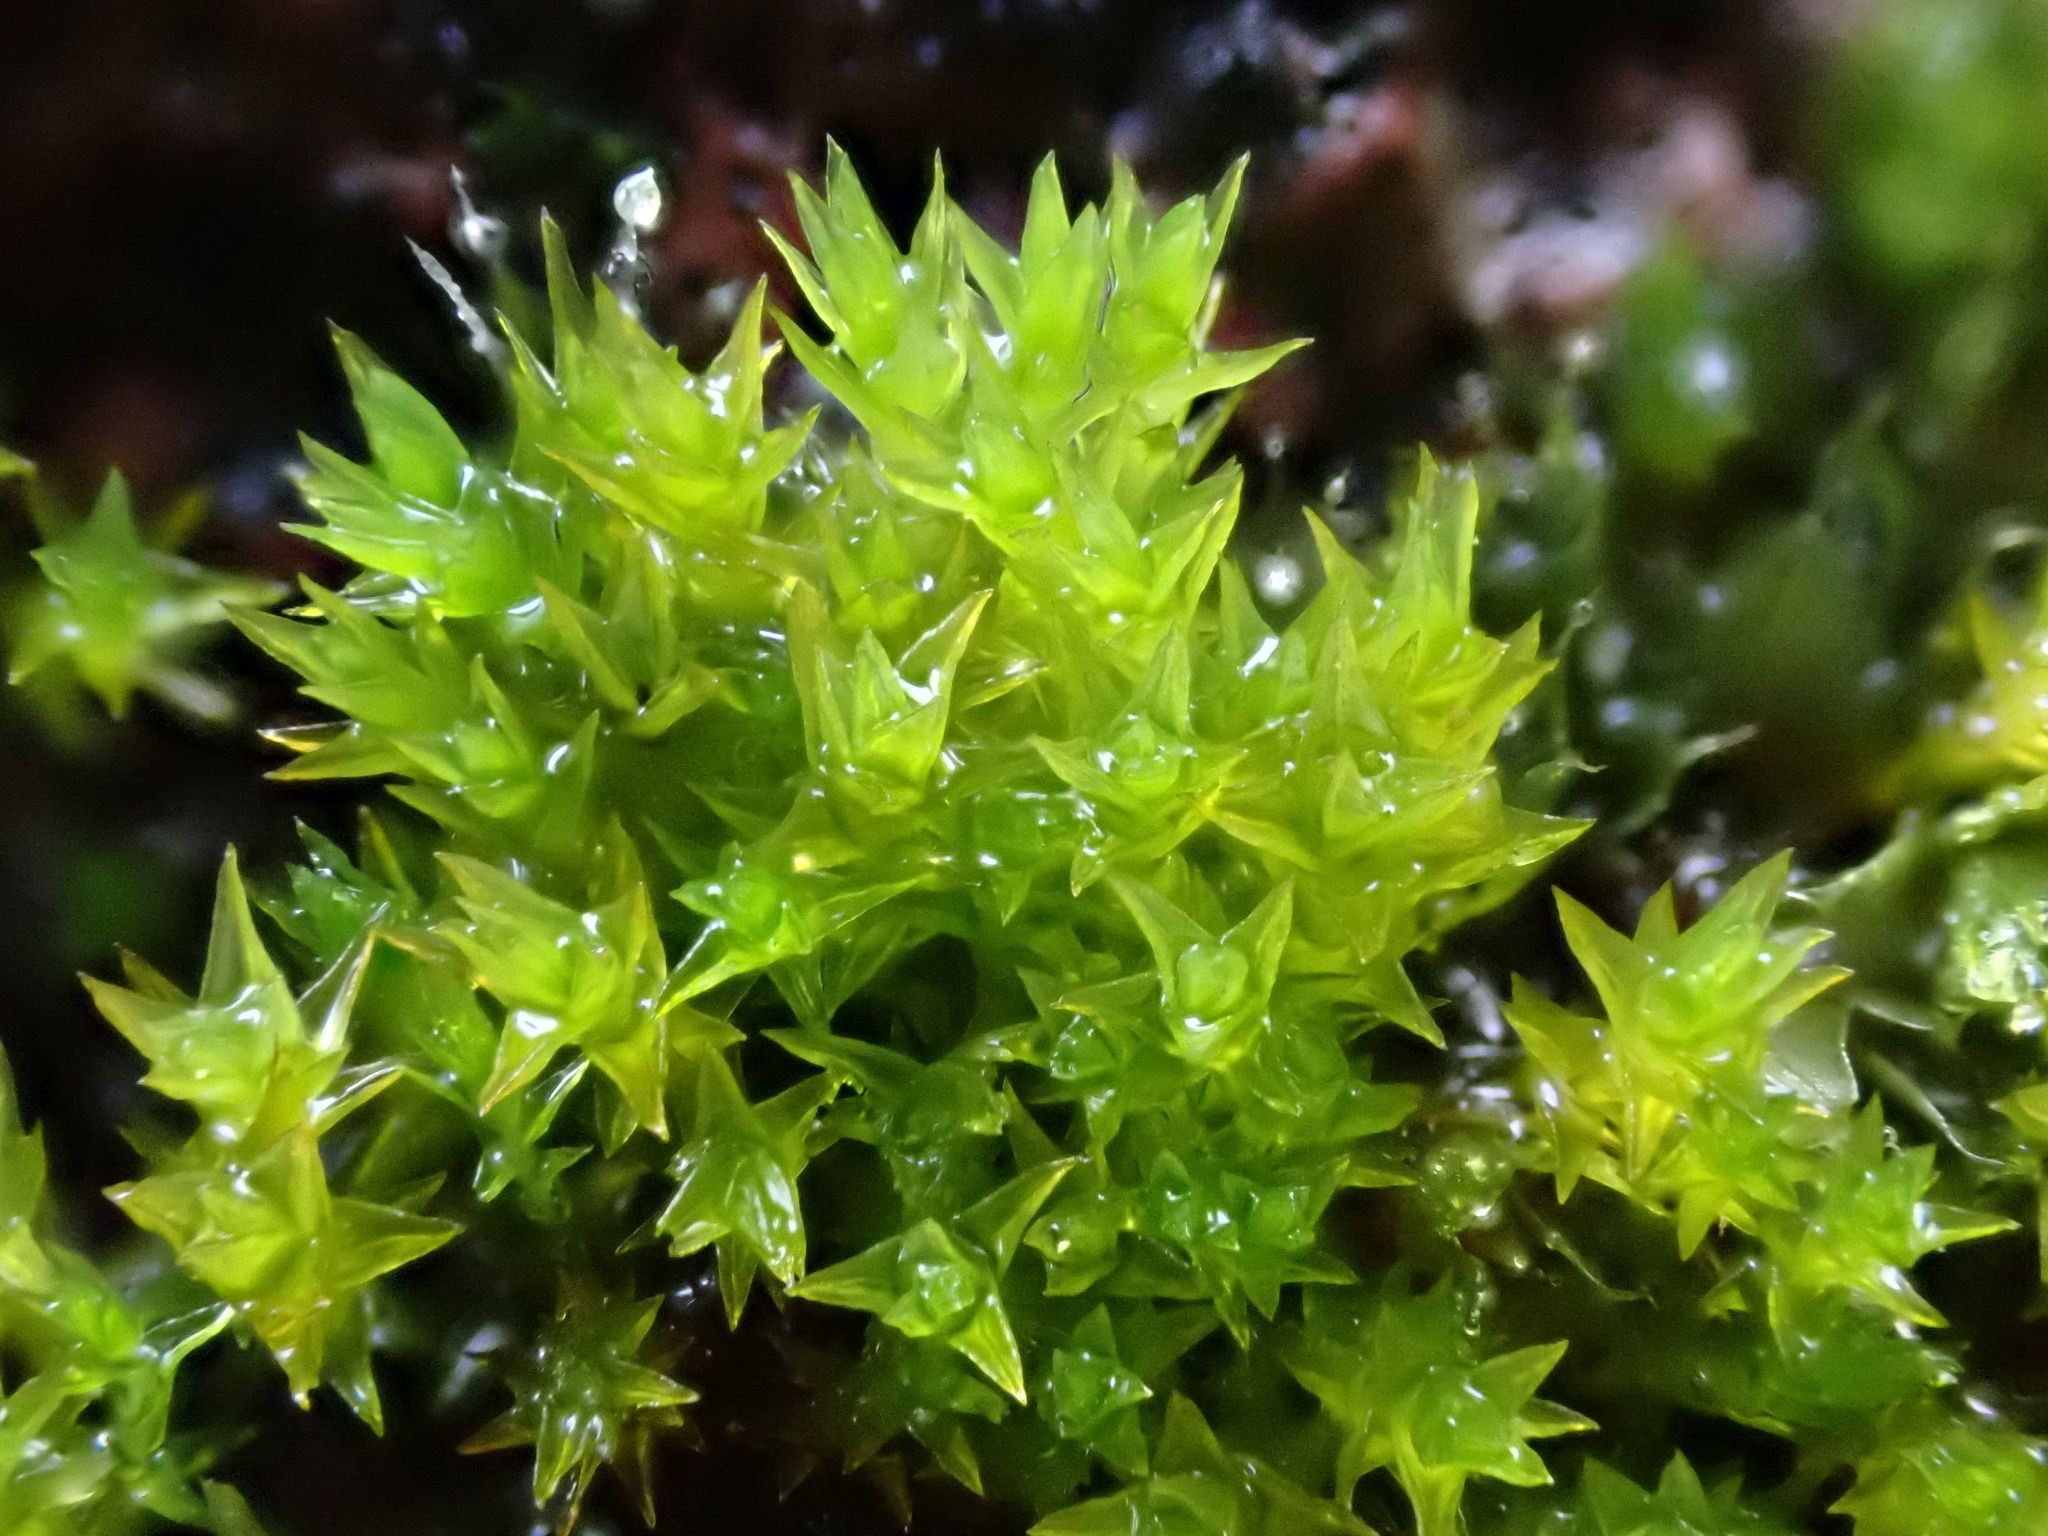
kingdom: Plantae
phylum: Bryophyta
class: Bryopsida
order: Pottiales
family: Pottiaceae
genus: Geheebia
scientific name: Geheebia lurida
